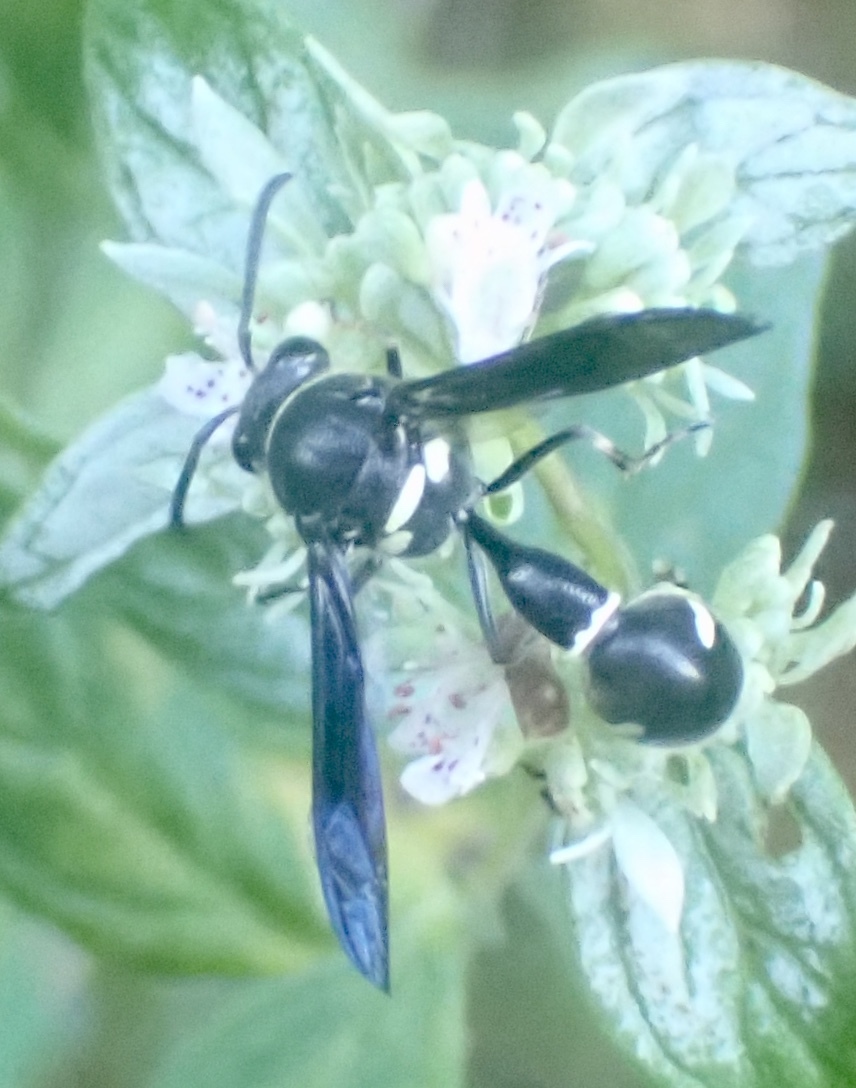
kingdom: Animalia
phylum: Arthropoda
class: Insecta
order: Hymenoptera
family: Vespidae
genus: Eumenes
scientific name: Eumenes fraternus
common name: Fraternal potter wasp
